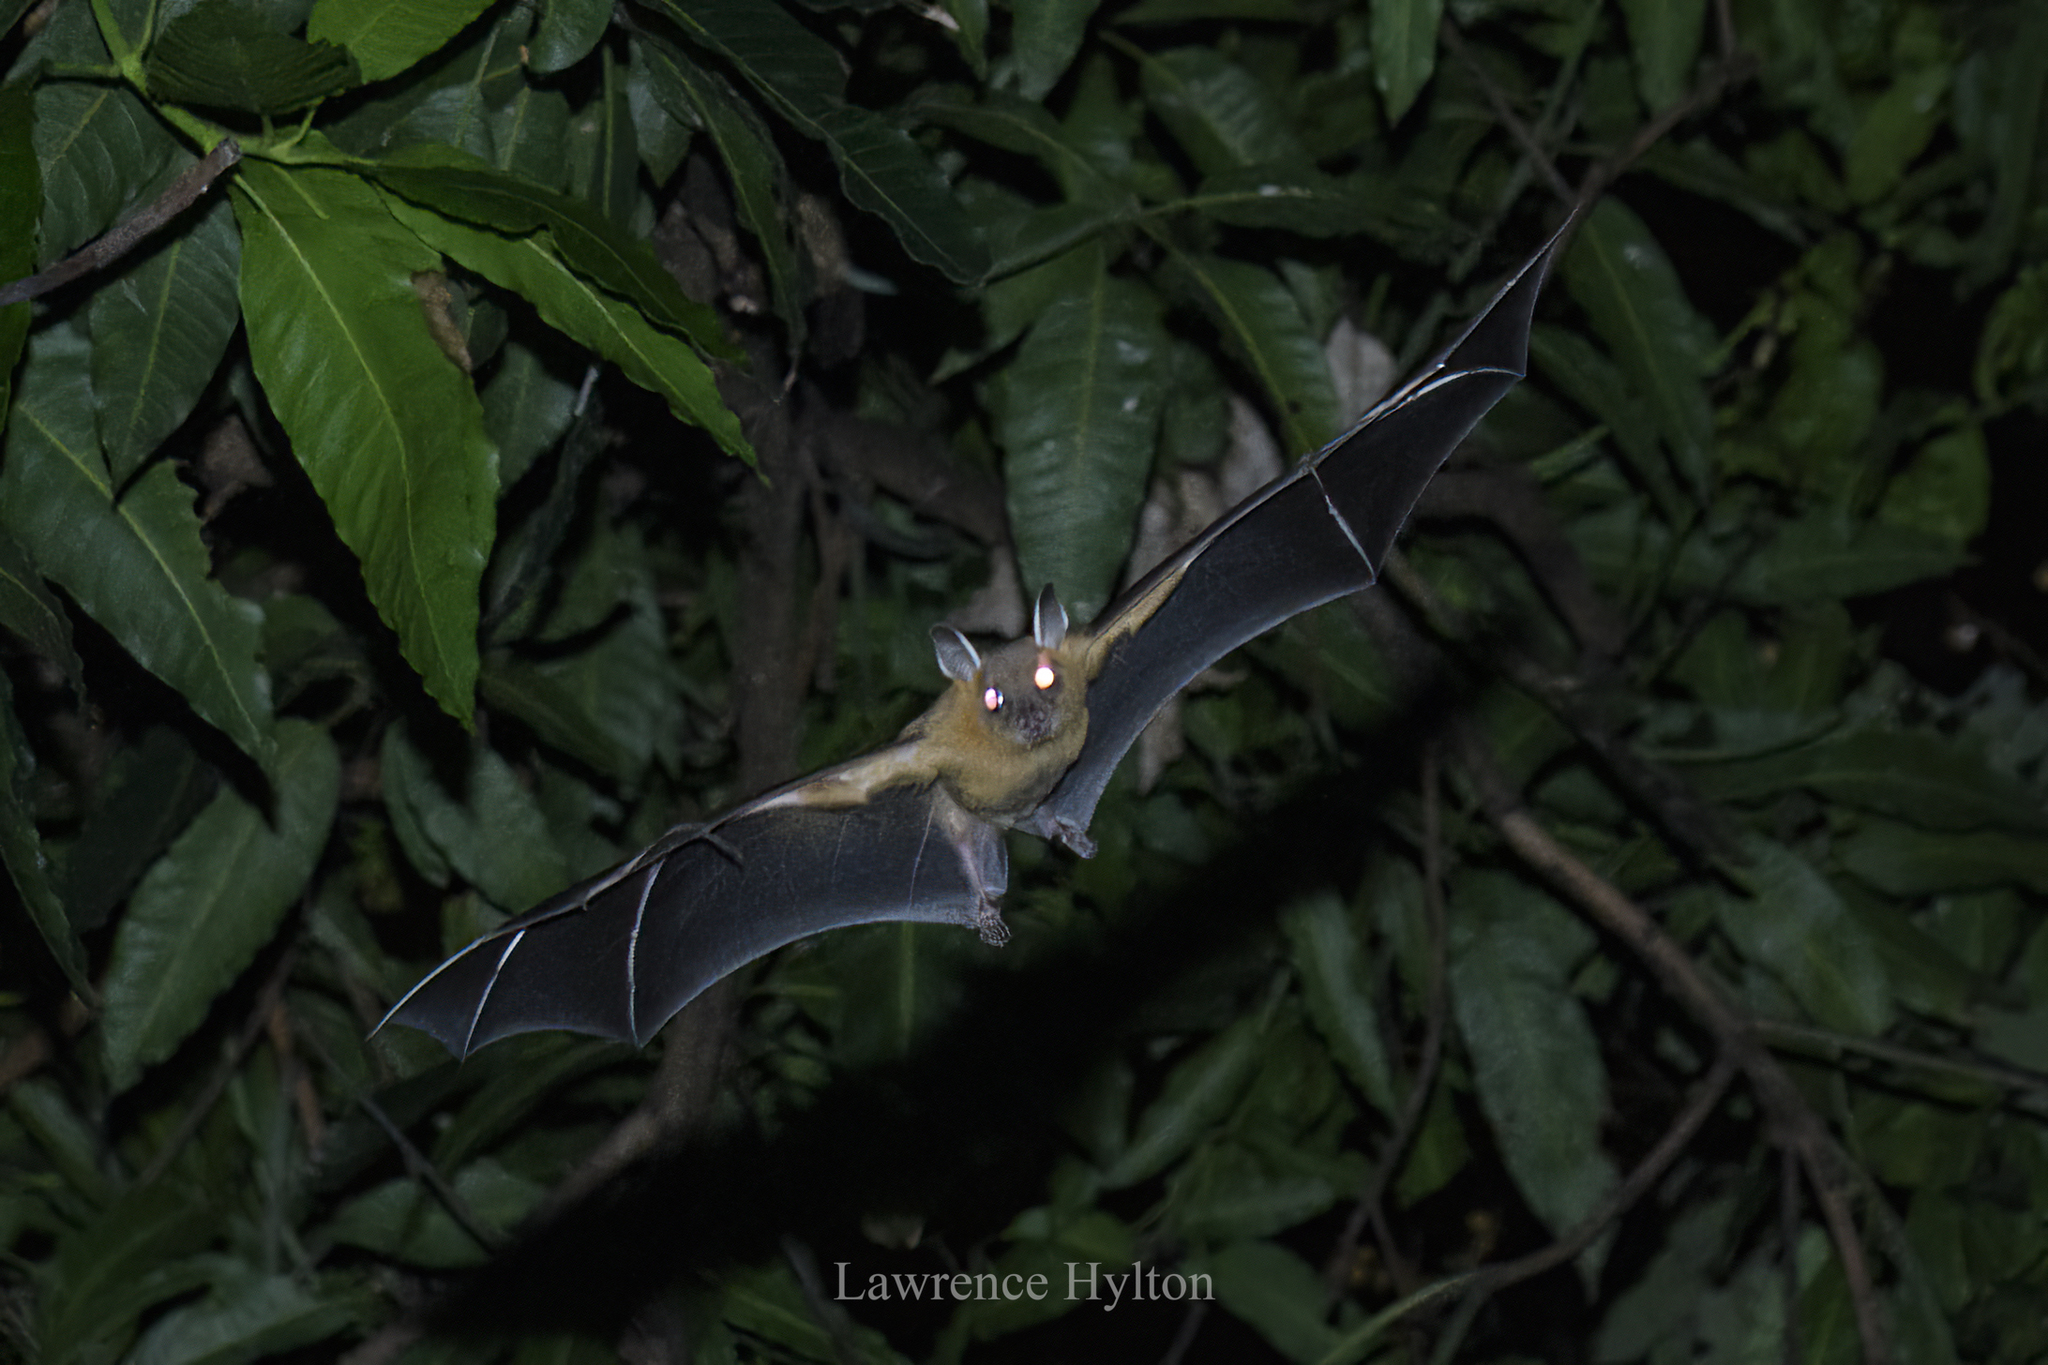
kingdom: Animalia
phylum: Chordata
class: Mammalia
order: Chiroptera
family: Pteropodidae
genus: Cynopterus
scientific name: Cynopterus sphinx
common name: Greater short-nosed fruit bat
